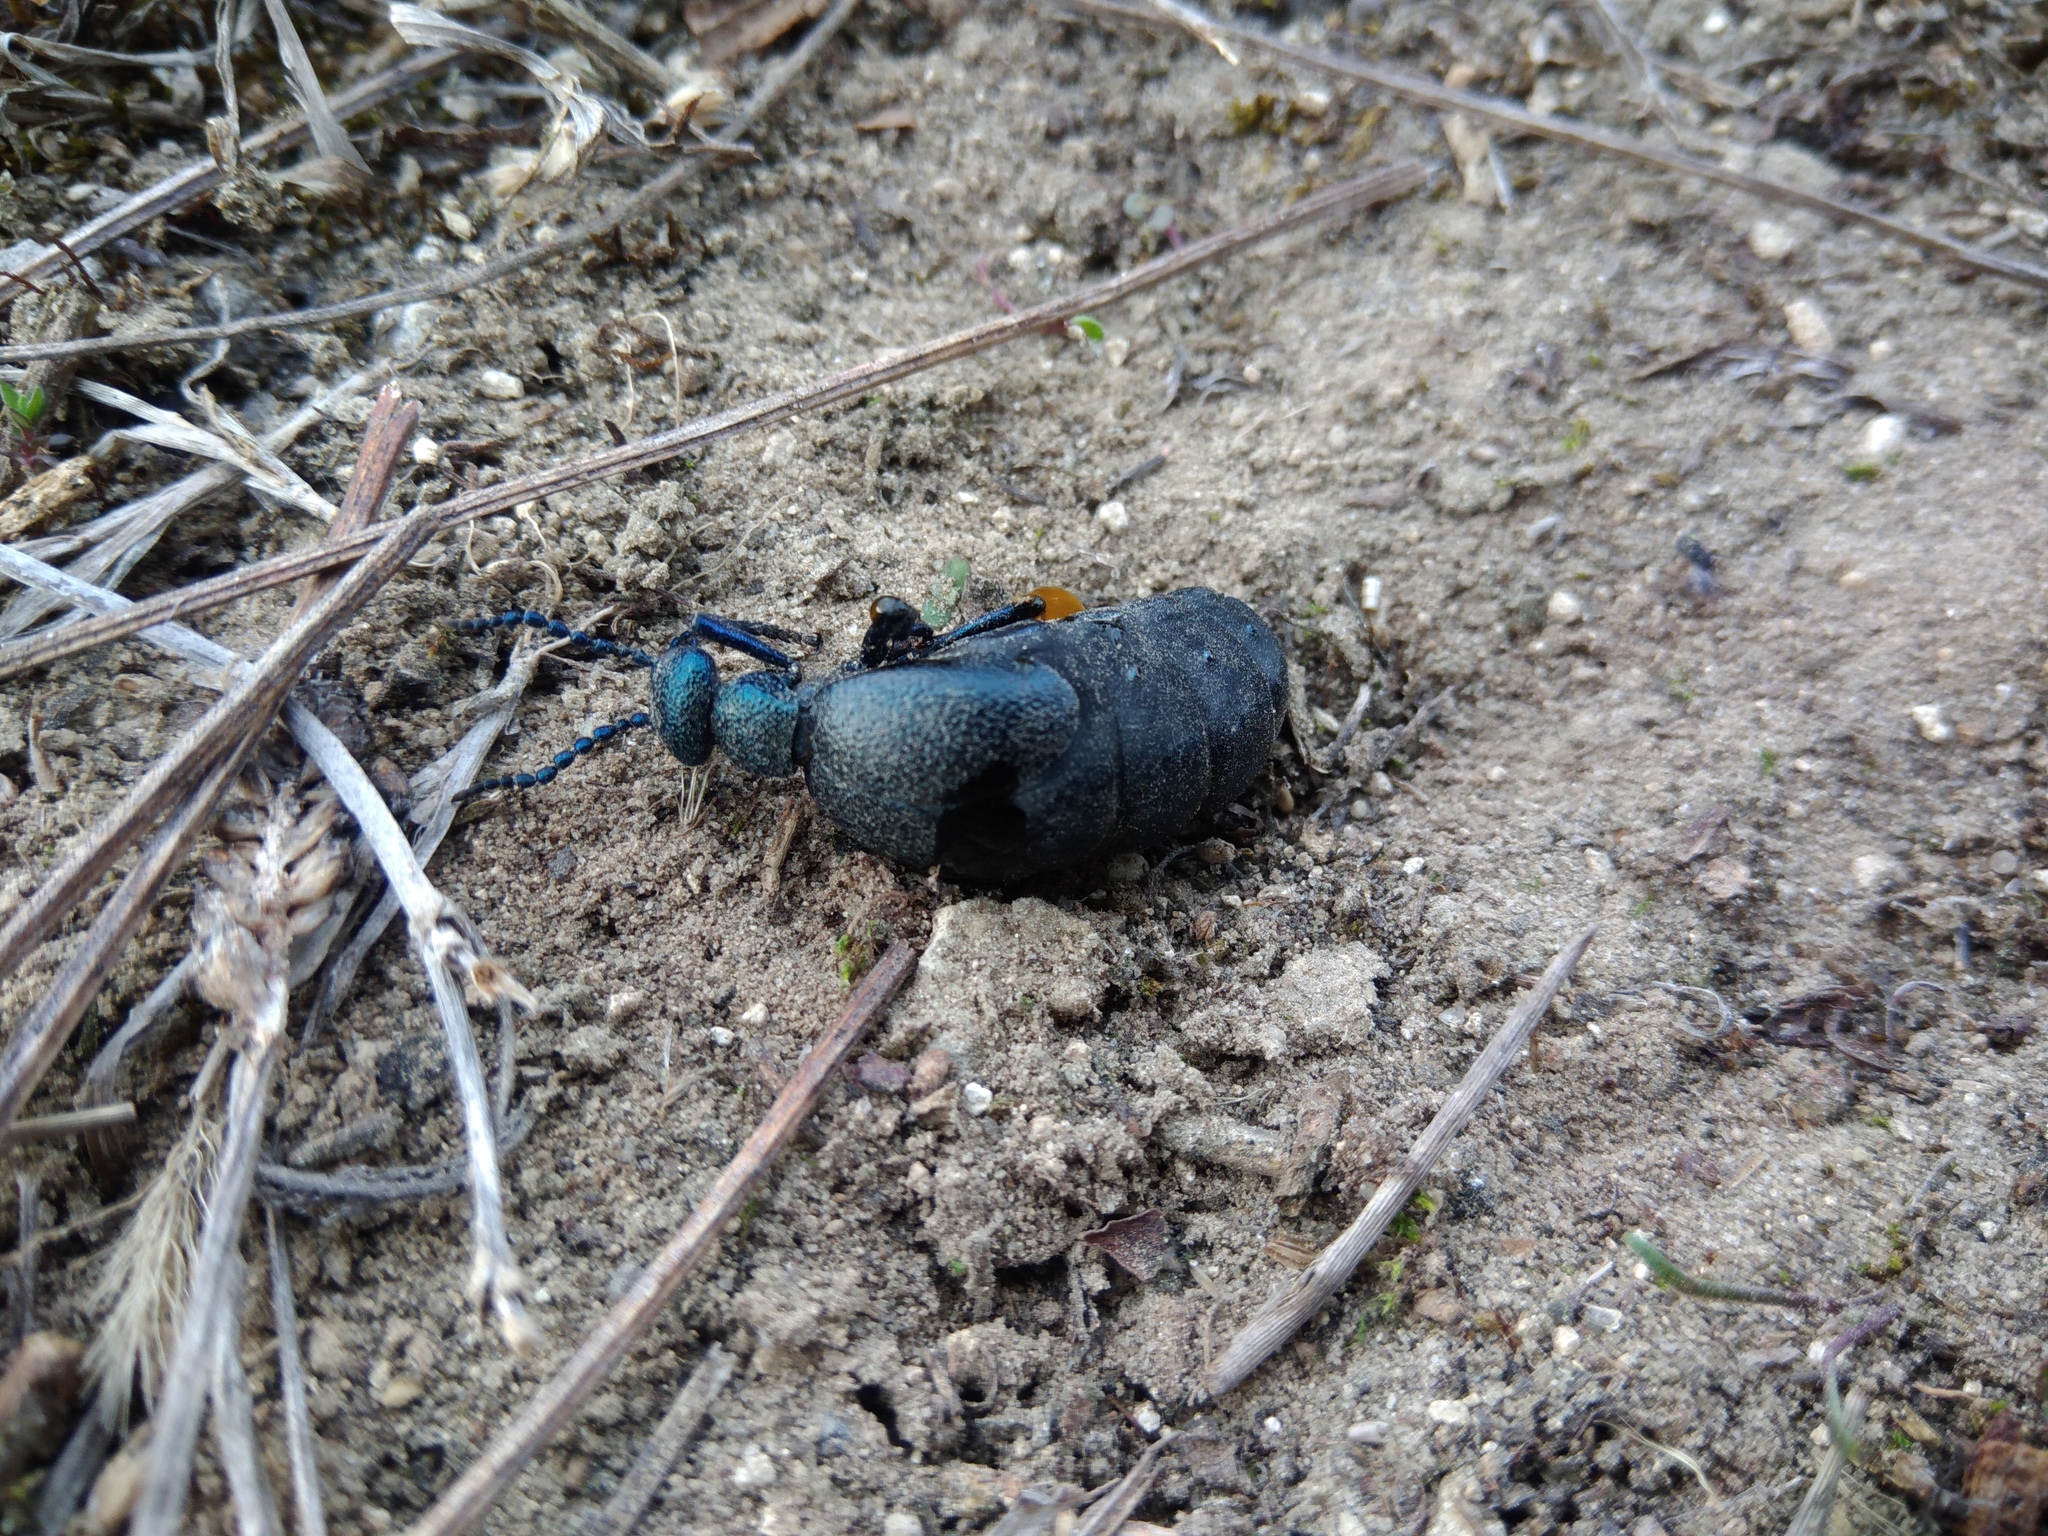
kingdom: Animalia
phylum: Arthropoda
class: Insecta
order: Coleoptera
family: Meloidae
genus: Meloe
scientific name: Meloe proscarabaeus
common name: Black oil-beetle
